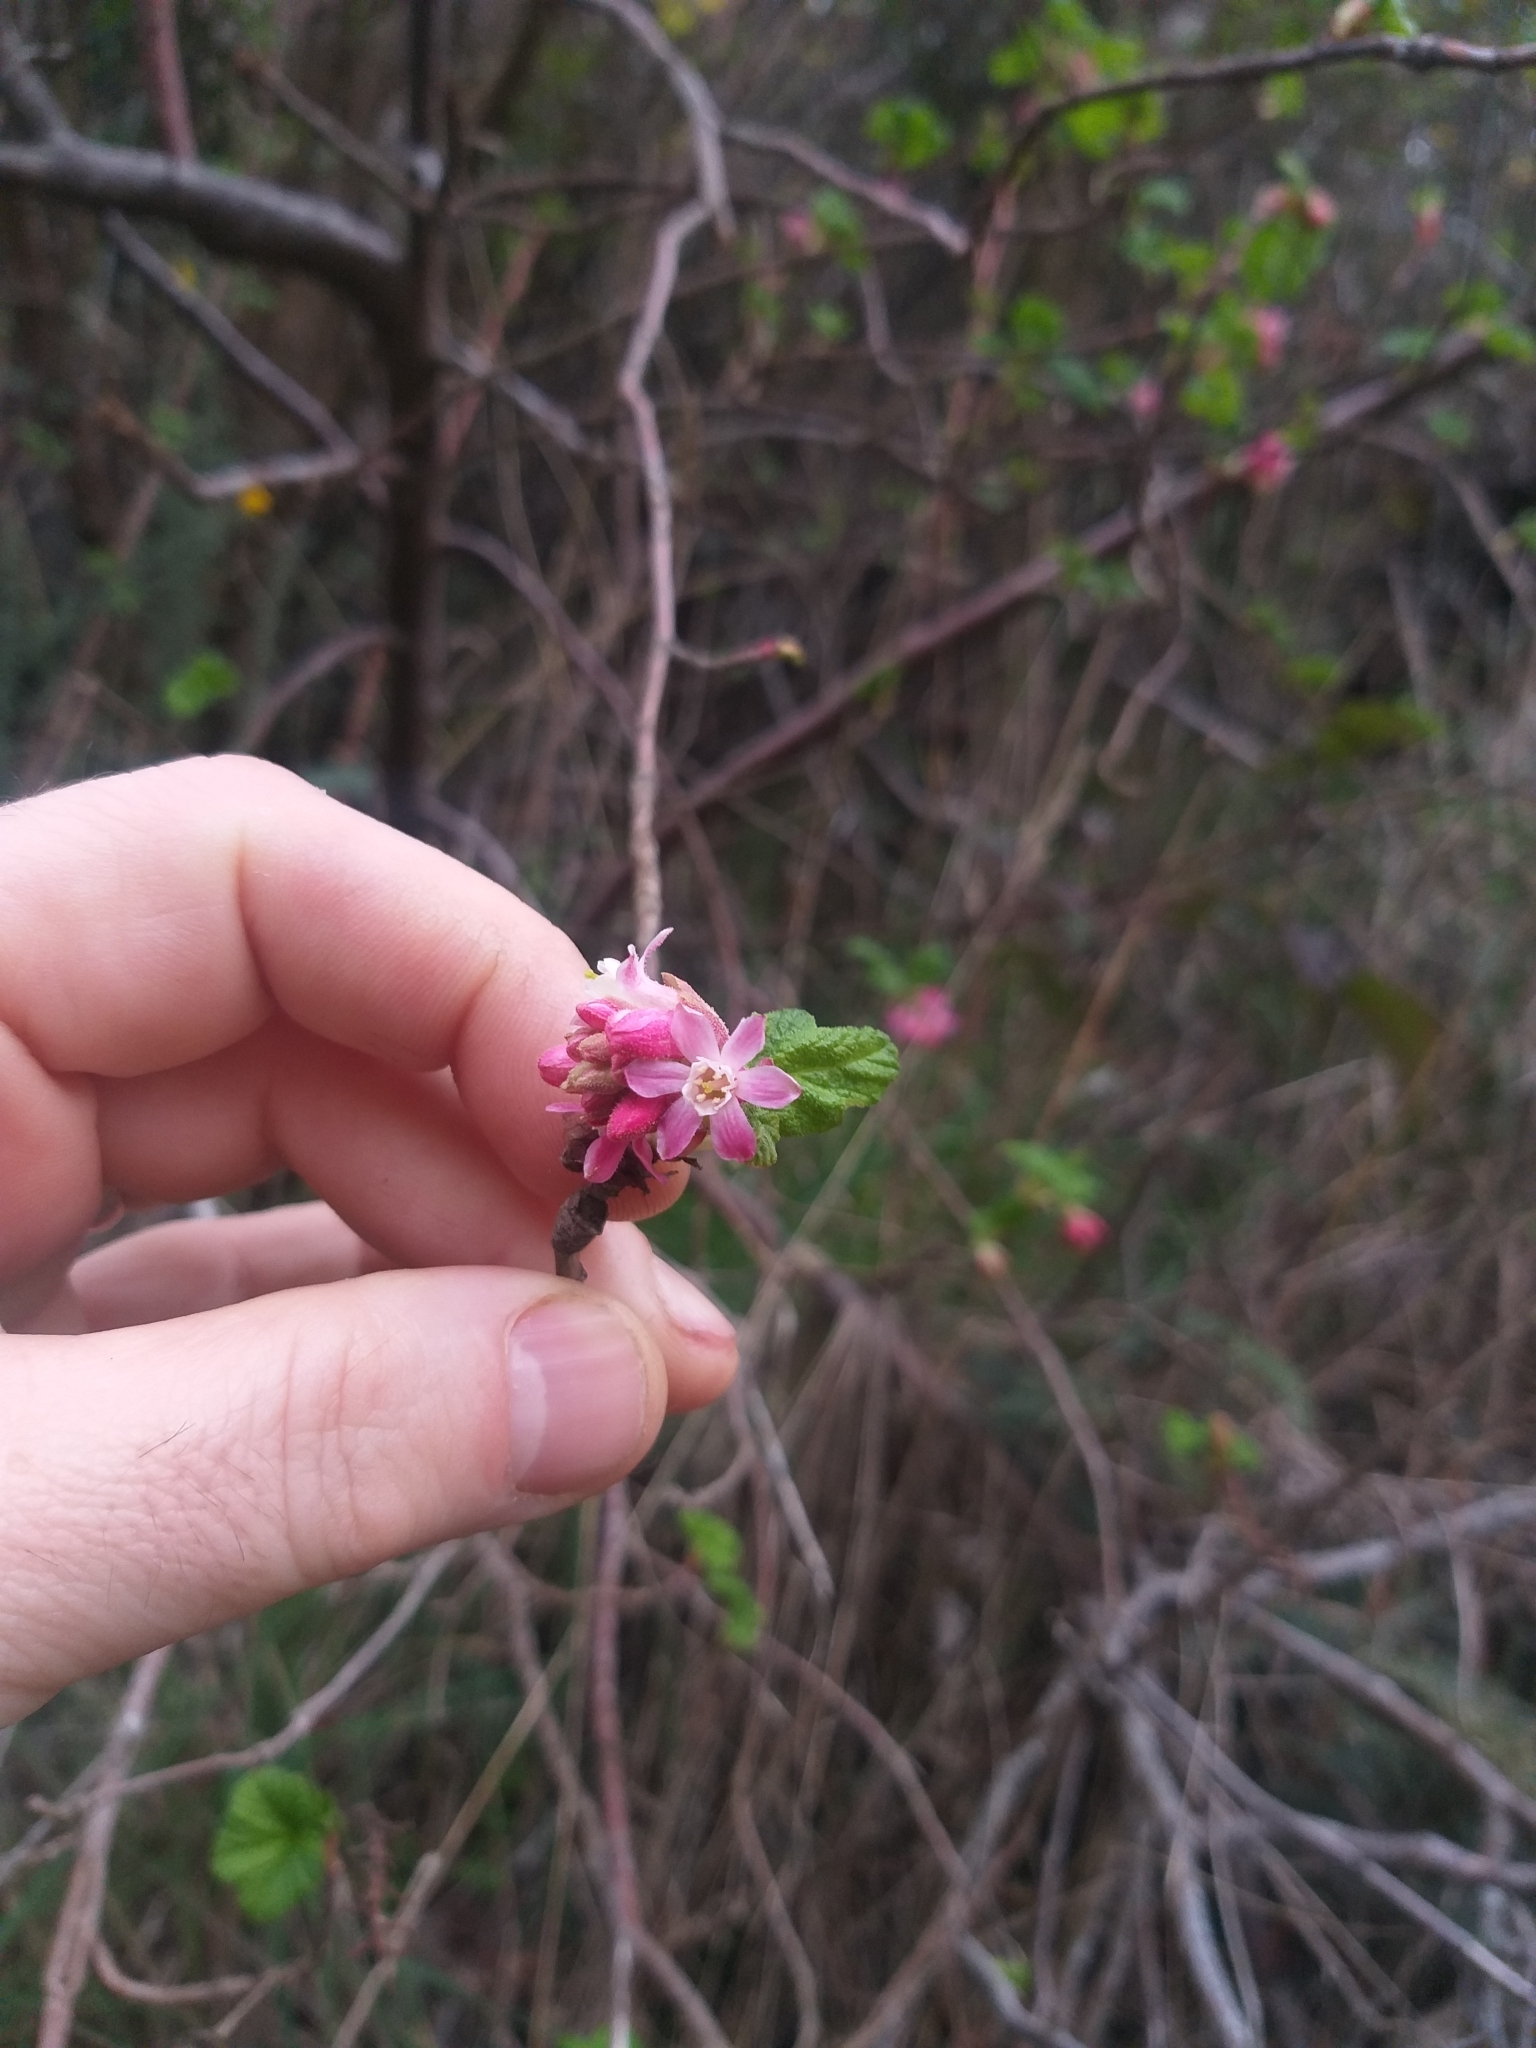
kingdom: Plantae
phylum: Tracheophyta
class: Magnoliopsida
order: Saxifragales
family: Grossulariaceae
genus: Ribes
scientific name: Ribes sanguineum
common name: Flowering currant
